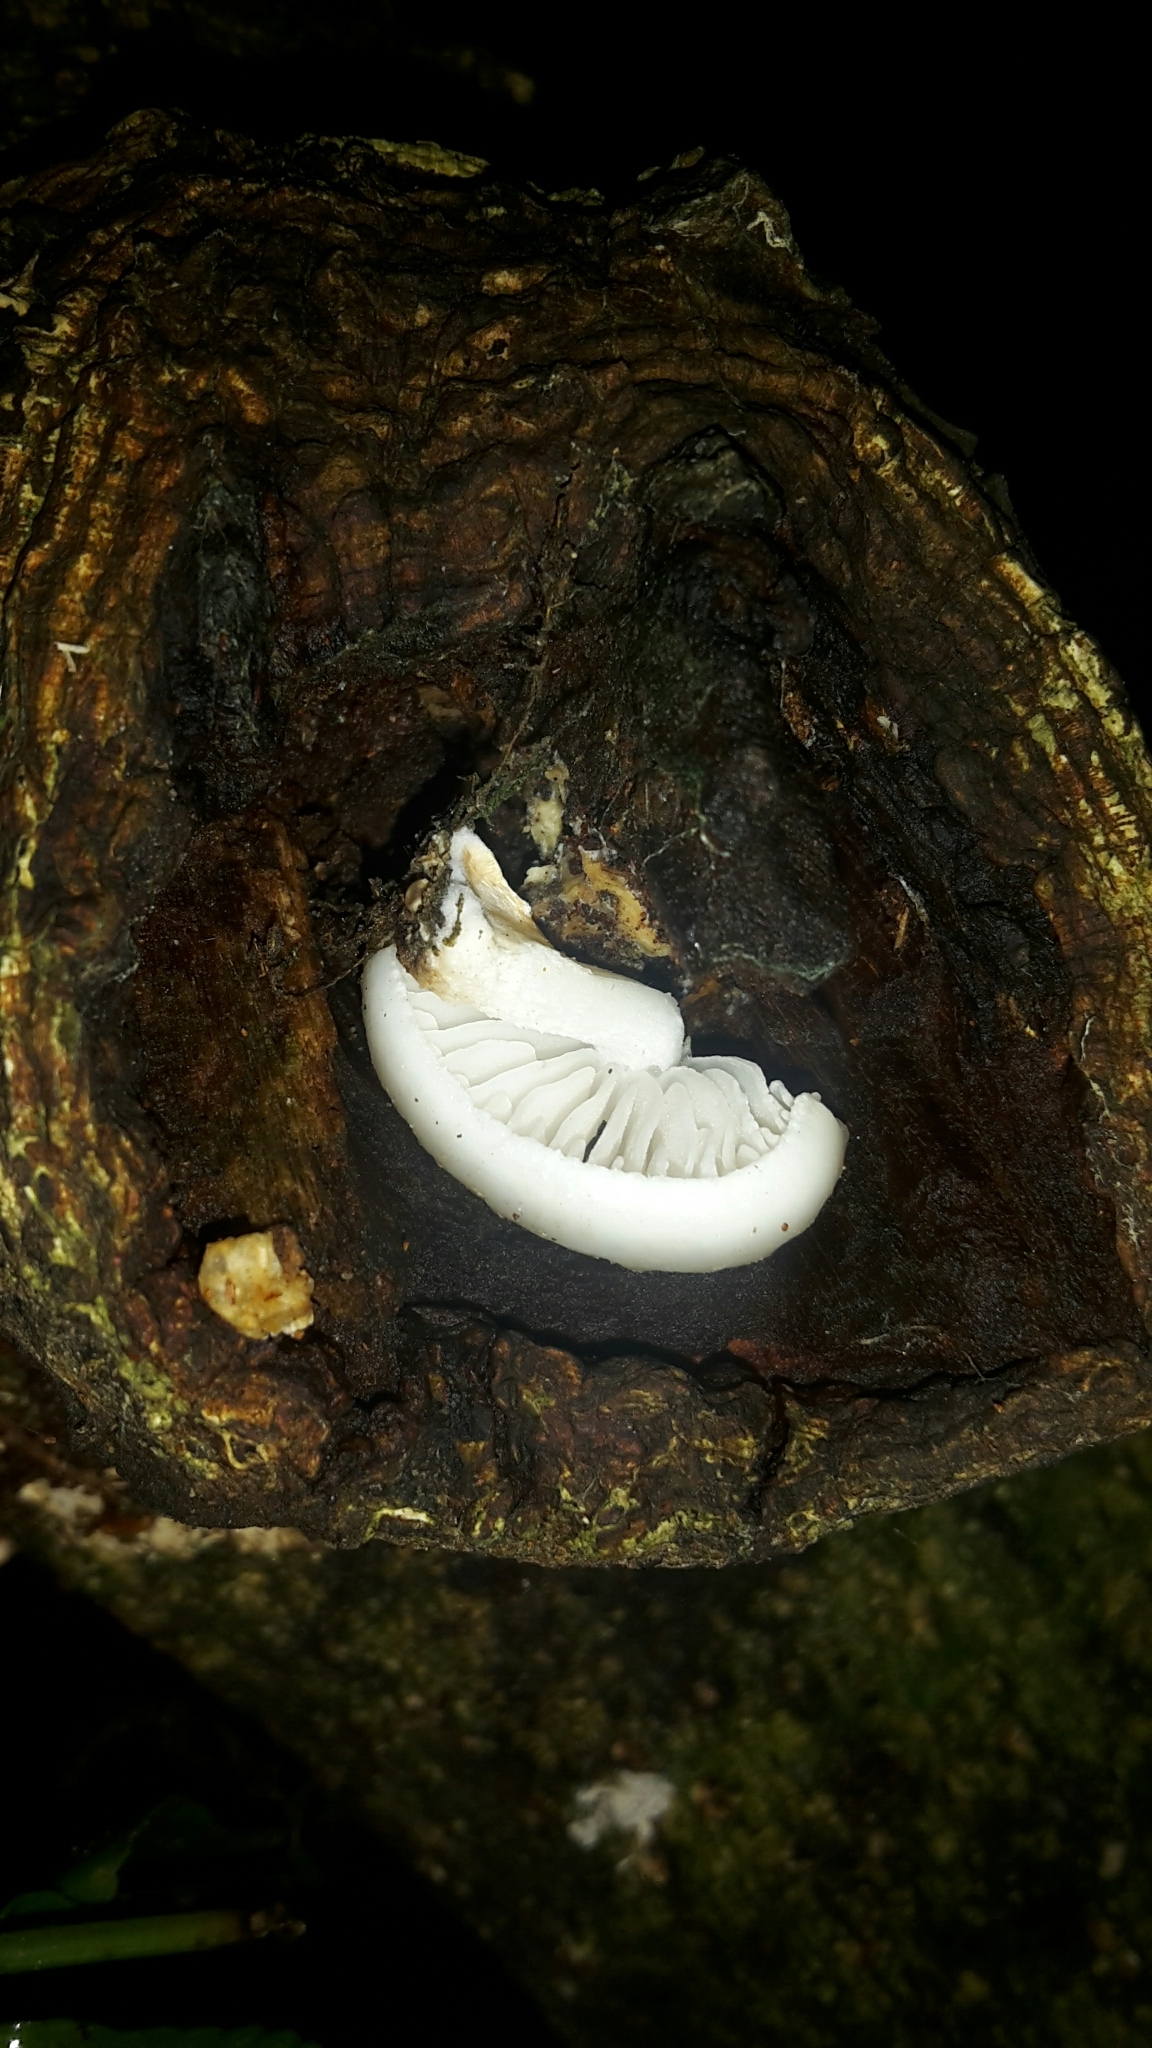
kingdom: Fungi
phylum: Basidiomycota
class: Agaricomycetes
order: Agaricales
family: Physalacriaceae
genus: Oudemansiella
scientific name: Oudemansiella australis
